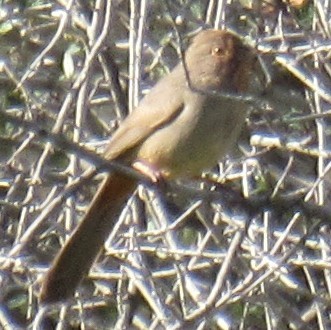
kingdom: Animalia
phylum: Chordata
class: Aves
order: Passeriformes
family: Passerellidae
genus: Melozone
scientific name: Melozone crissalis
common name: California towhee
